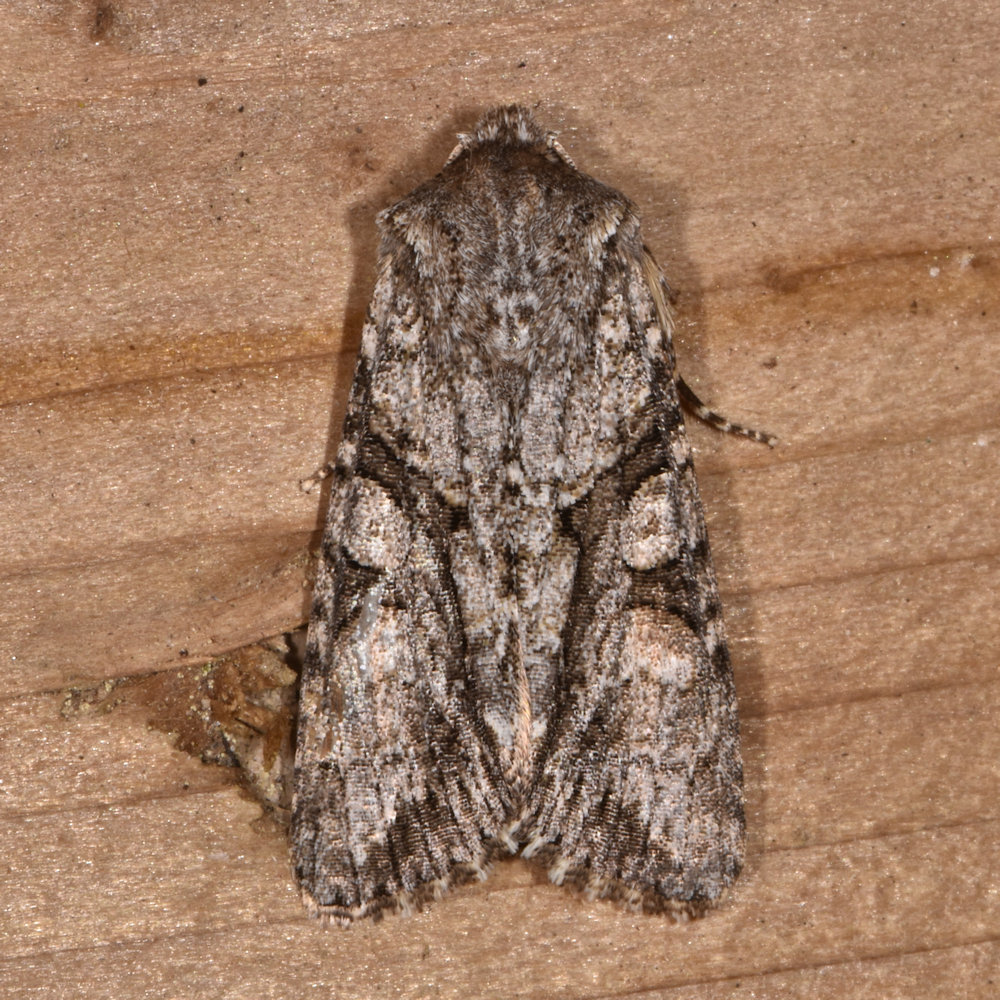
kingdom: Animalia
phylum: Arthropoda
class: Insecta
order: Lepidoptera
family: Noctuidae
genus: Achatia
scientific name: Achatia distincta
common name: Distinct quaker
